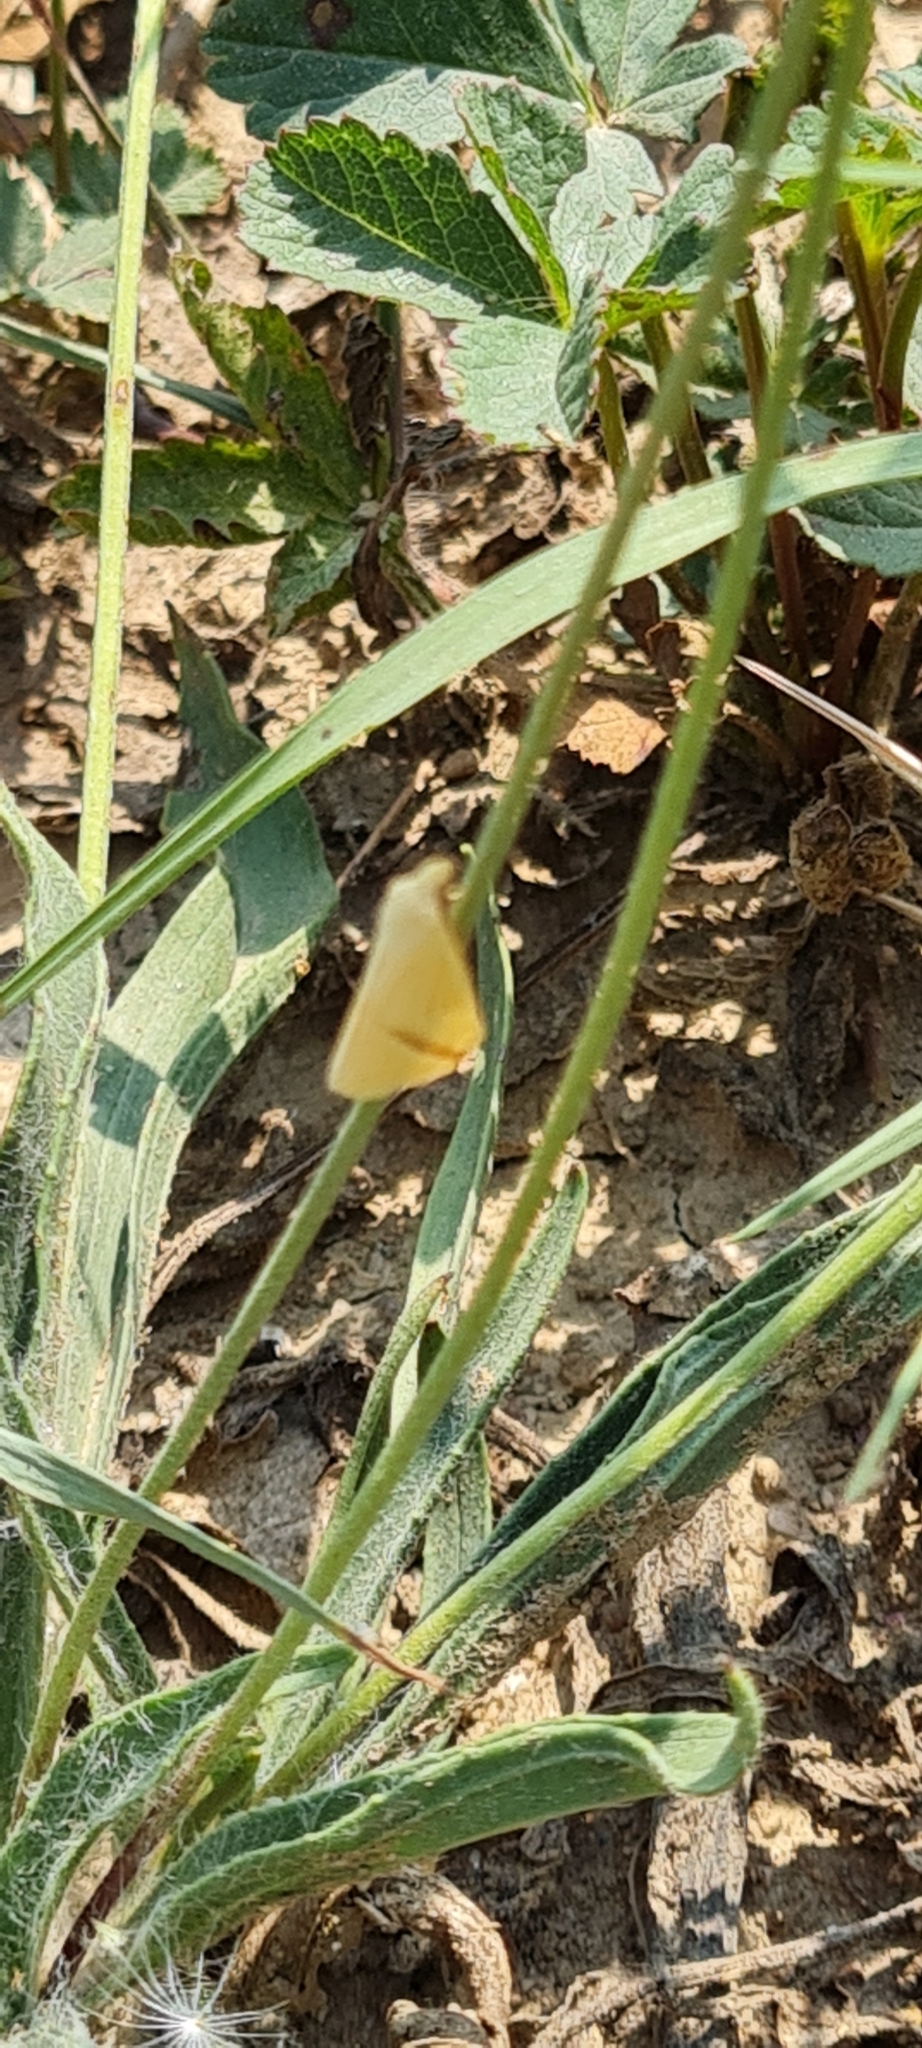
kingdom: Animalia
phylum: Arthropoda
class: Insecta
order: Lepidoptera
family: Geometridae
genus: Rhodometra
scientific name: Rhodometra sacraria
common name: Vestal
